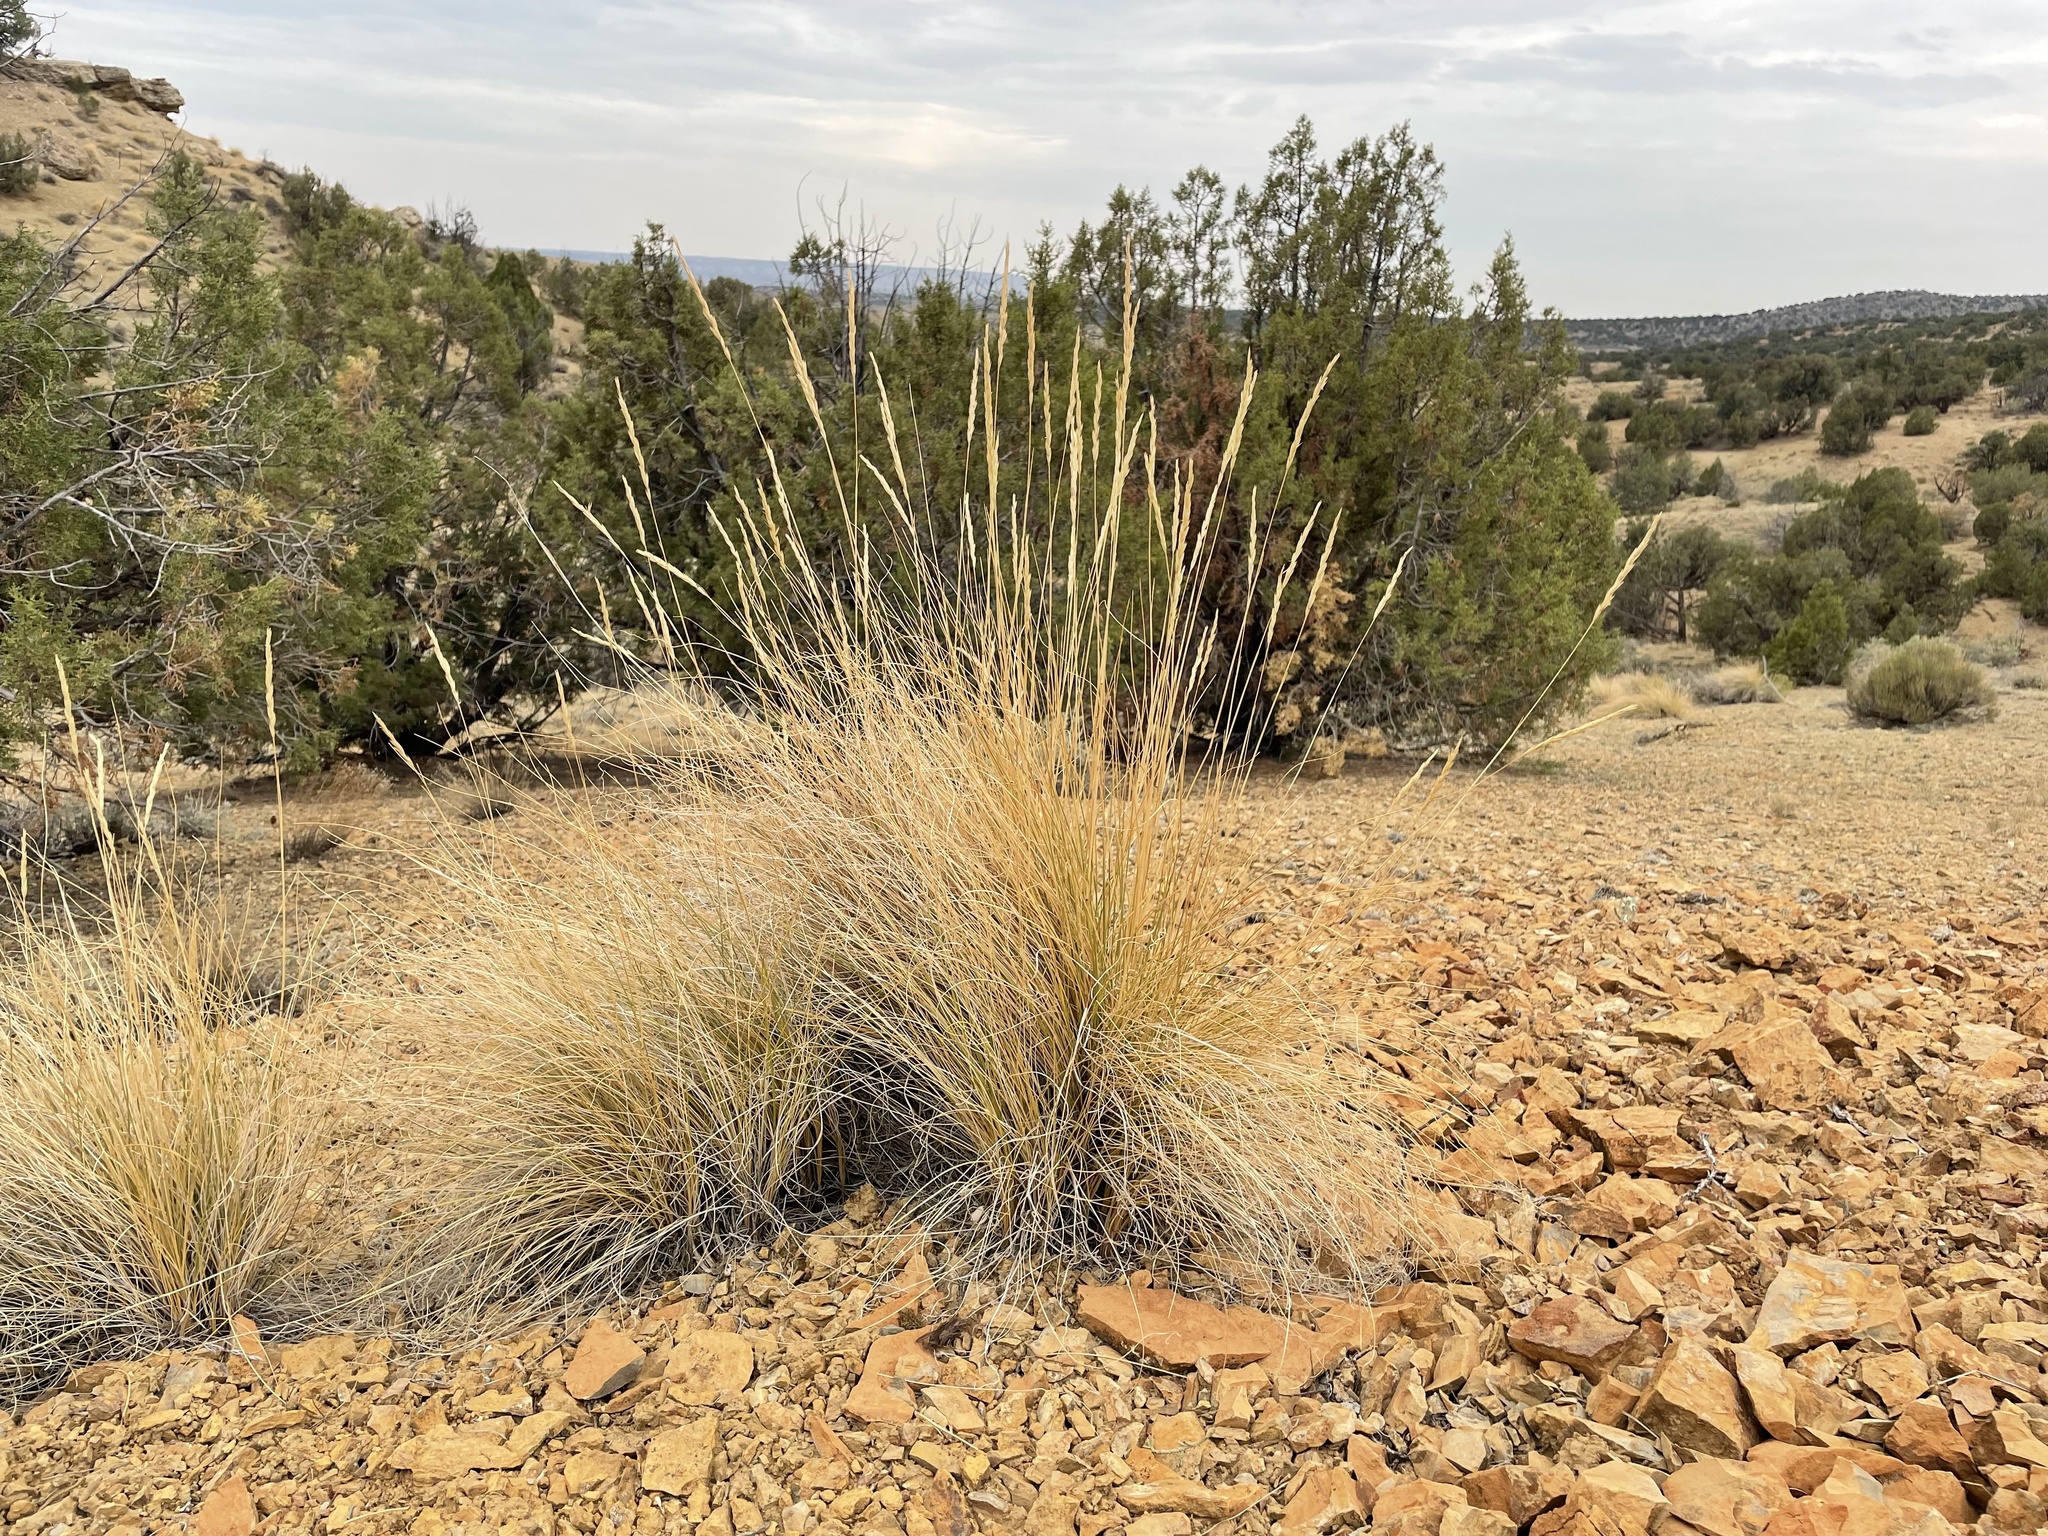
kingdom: Plantae
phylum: Tracheophyta
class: Liliopsida
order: Poales
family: Poaceae
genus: Leymus
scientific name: Leymus cinereus
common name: Basin wild rye
